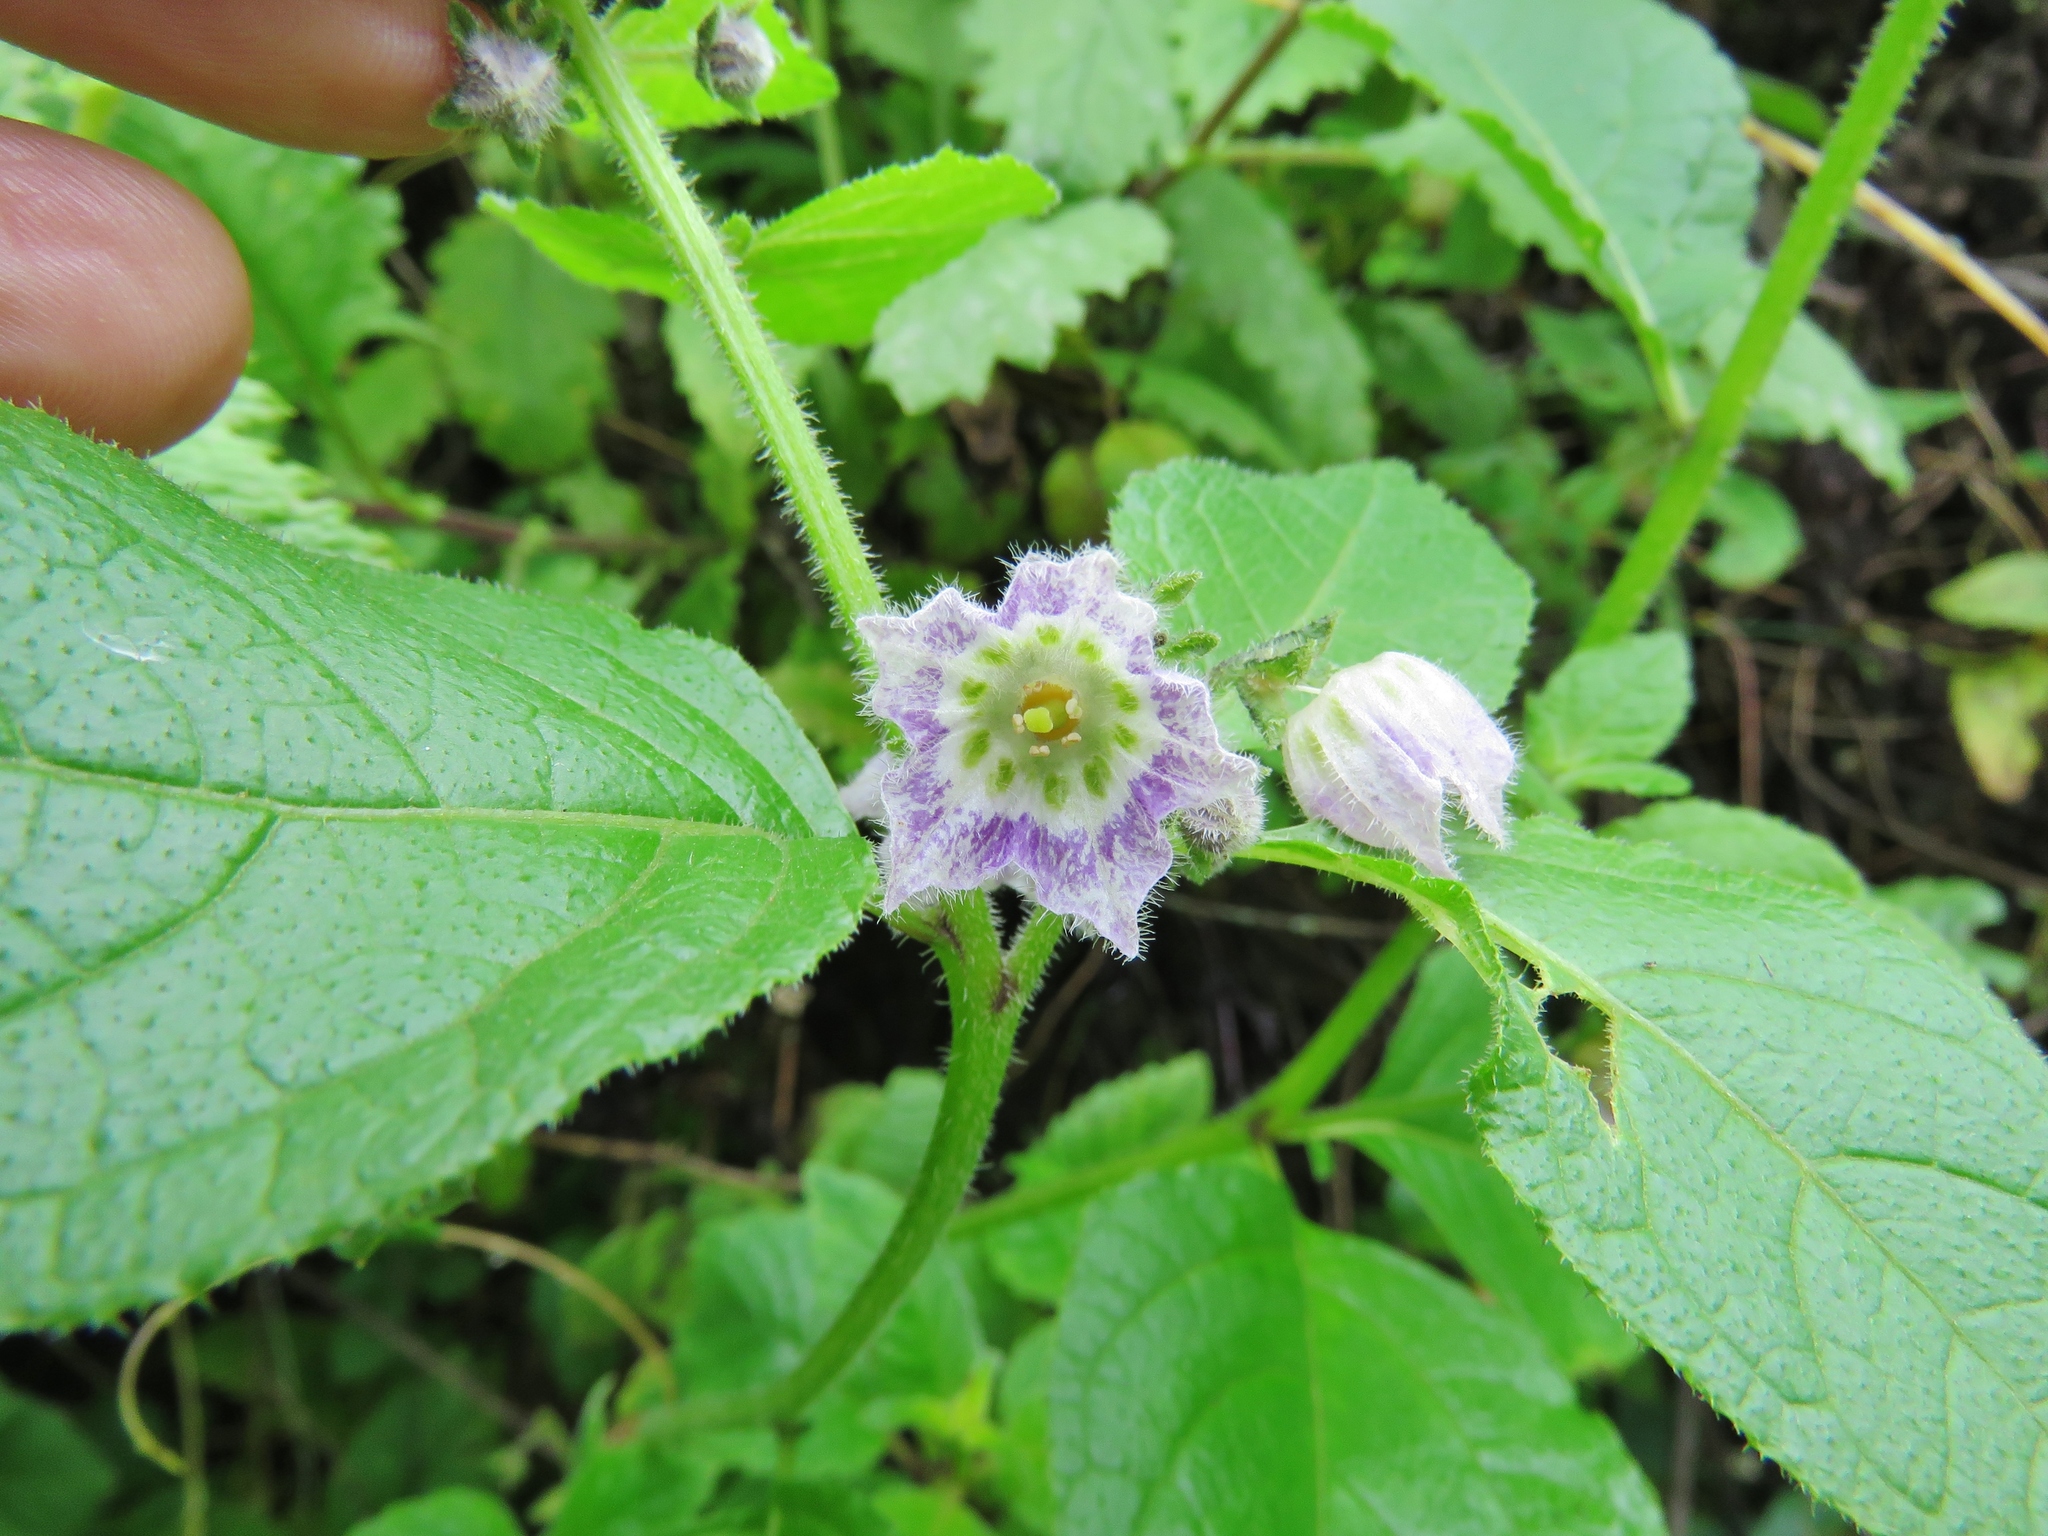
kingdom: Plantae
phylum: Tracheophyta
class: Magnoliopsida
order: Solanales
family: Solanaceae
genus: Jaltomata
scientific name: Jaltomata dentata
